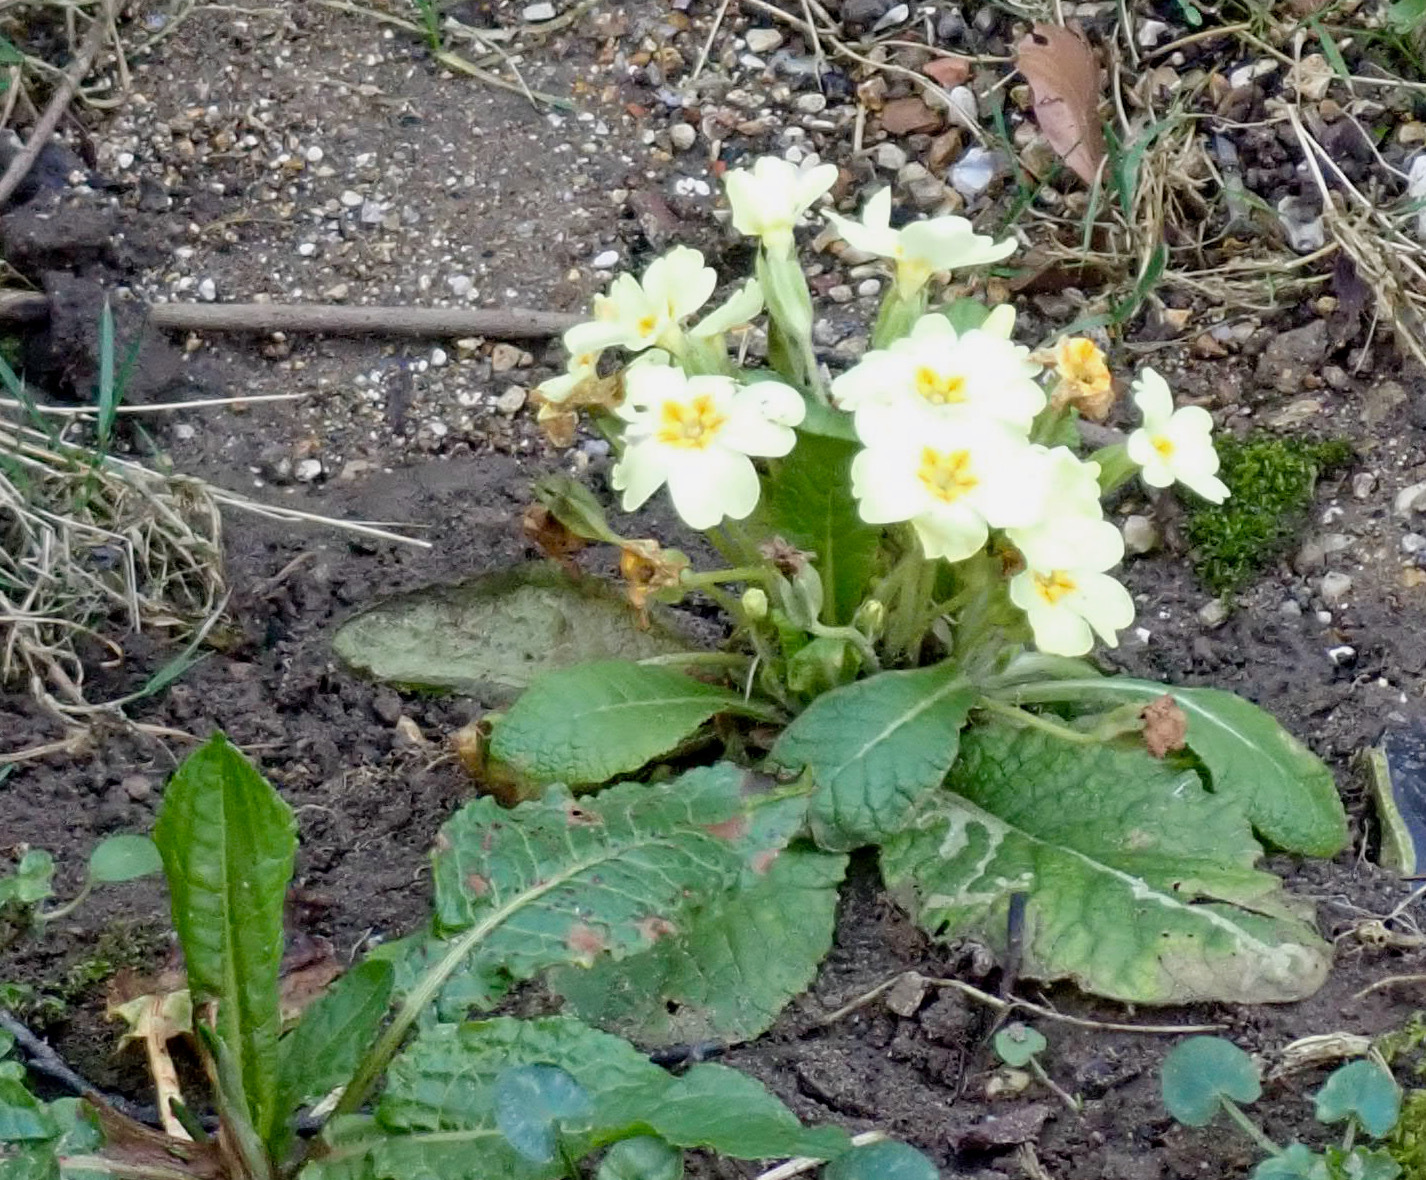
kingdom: Plantae
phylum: Tracheophyta
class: Magnoliopsida
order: Ericales
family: Primulaceae
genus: Primula
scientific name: Primula vulgaris
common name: Primrose
